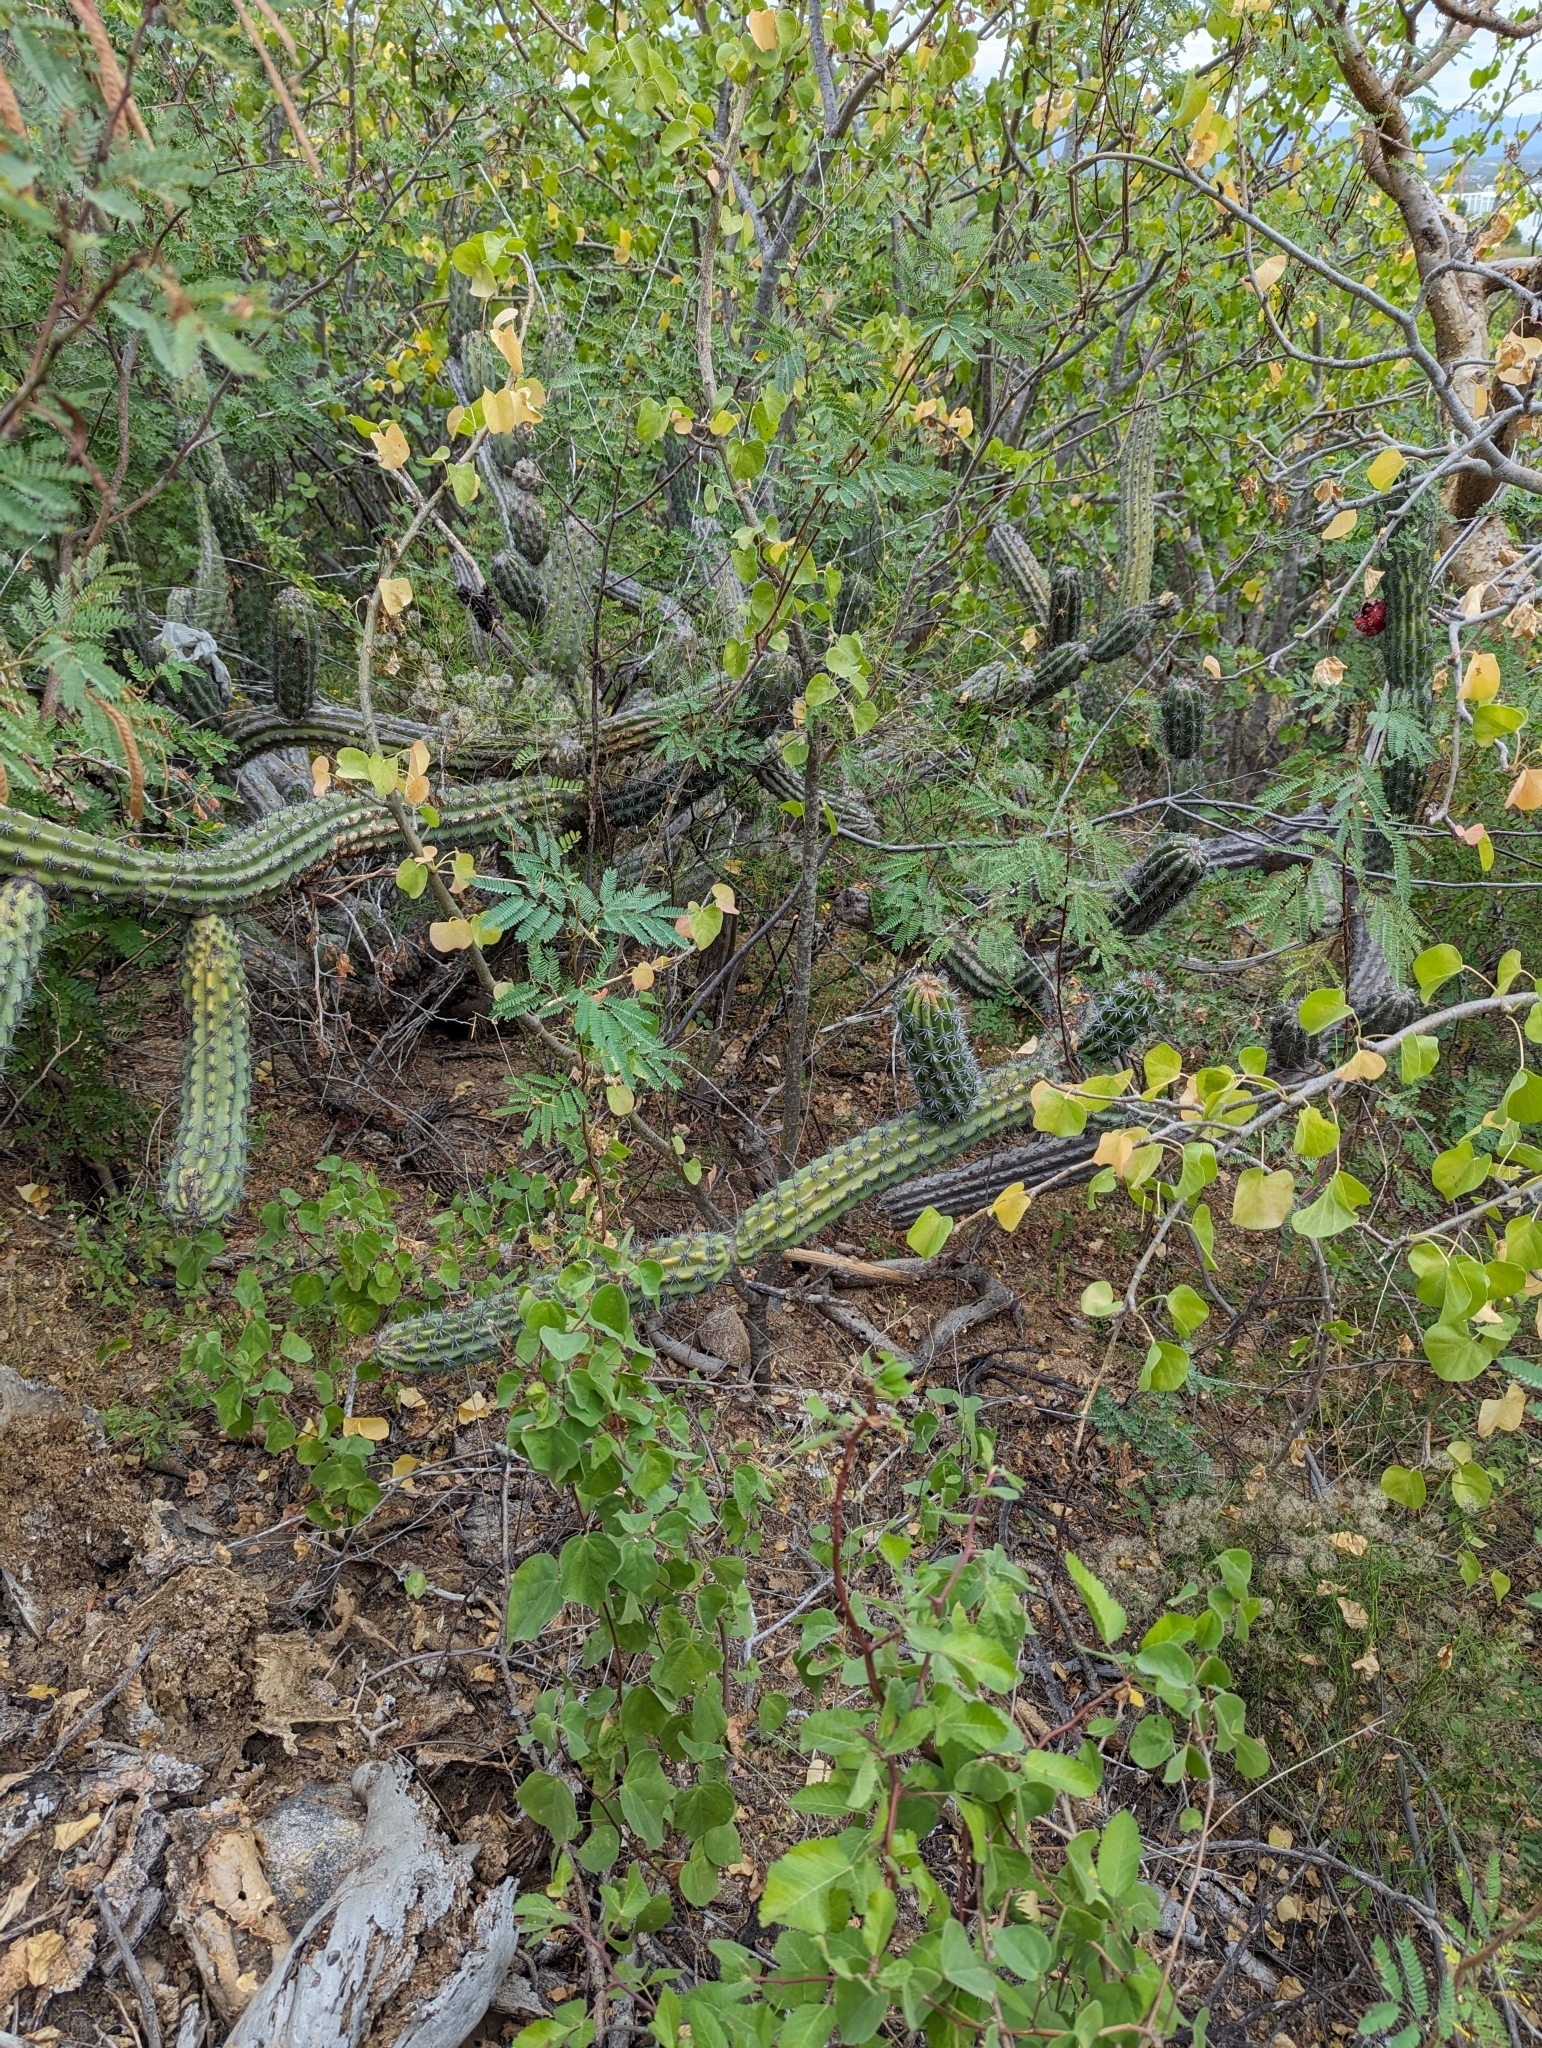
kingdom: Plantae
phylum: Tracheophyta
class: Magnoliopsida
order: Caryophyllales
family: Cactaceae
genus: Stenocereus
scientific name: Stenocereus gummosus
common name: Dagger cactus
